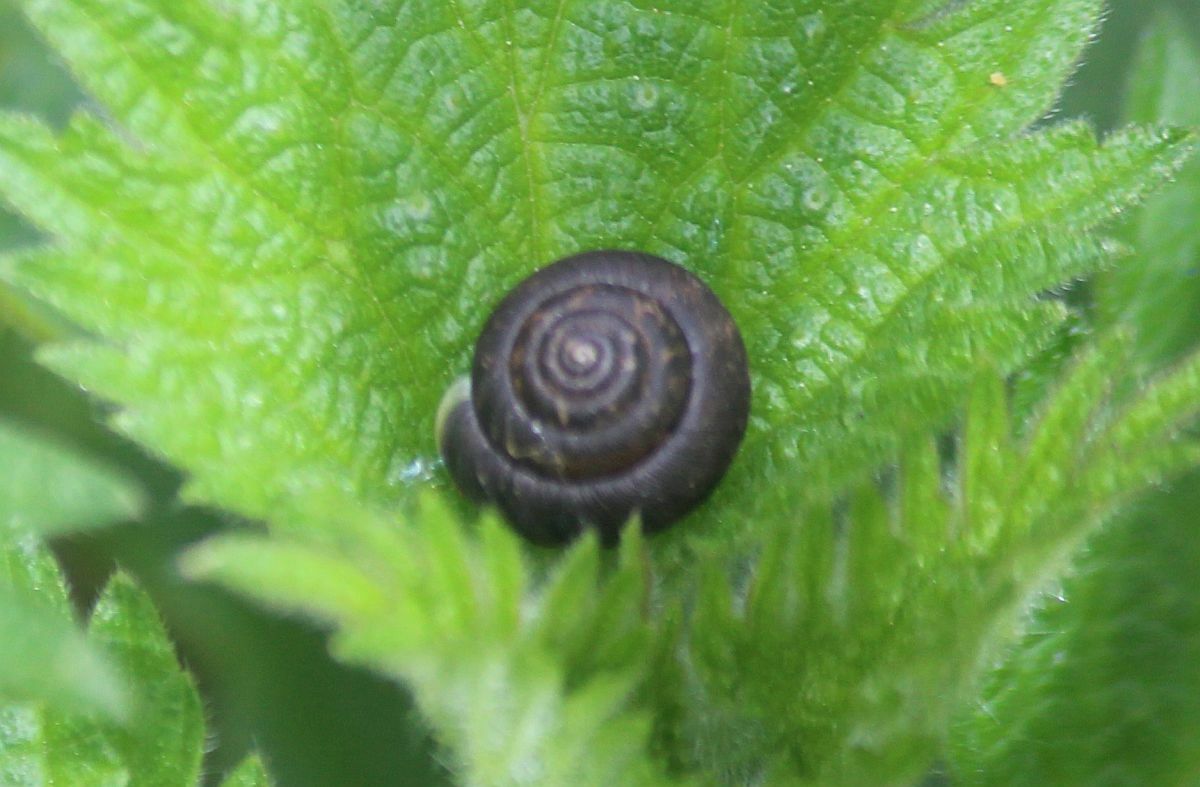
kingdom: Animalia
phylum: Mollusca
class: Gastropoda
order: Stylommatophora
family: Hygromiidae
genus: Trochulus
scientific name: Trochulus striolatus
